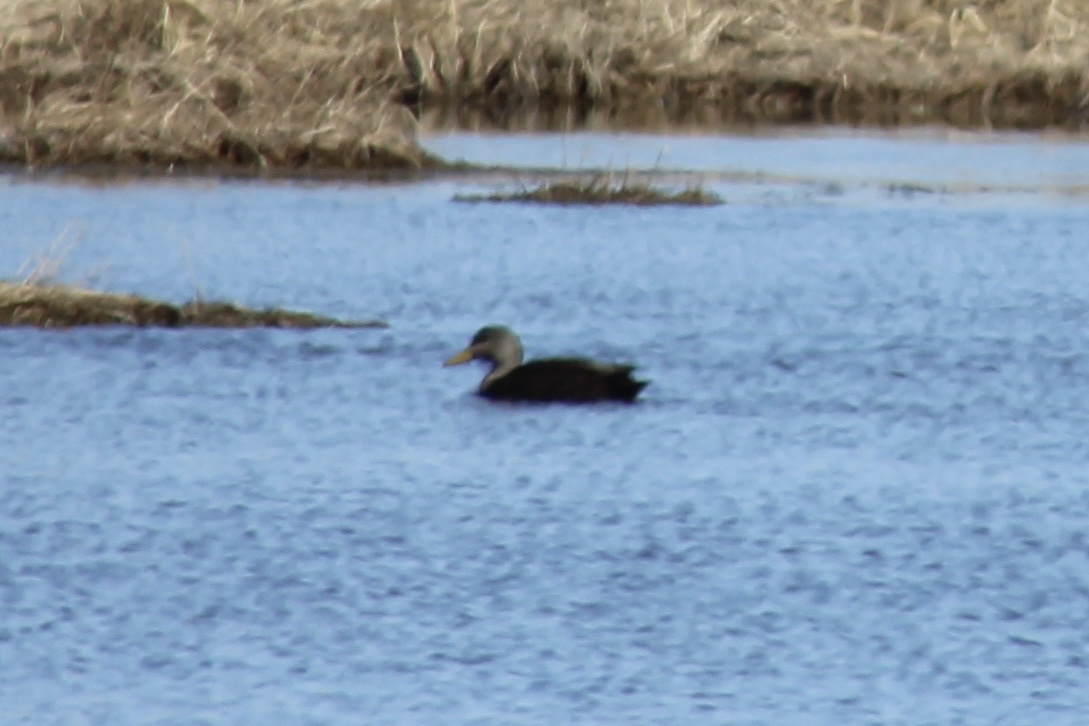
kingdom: Animalia
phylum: Chordata
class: Aves
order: Anseriformes
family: Anatidae
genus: Anas
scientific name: Anas rubripes
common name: American black duck
